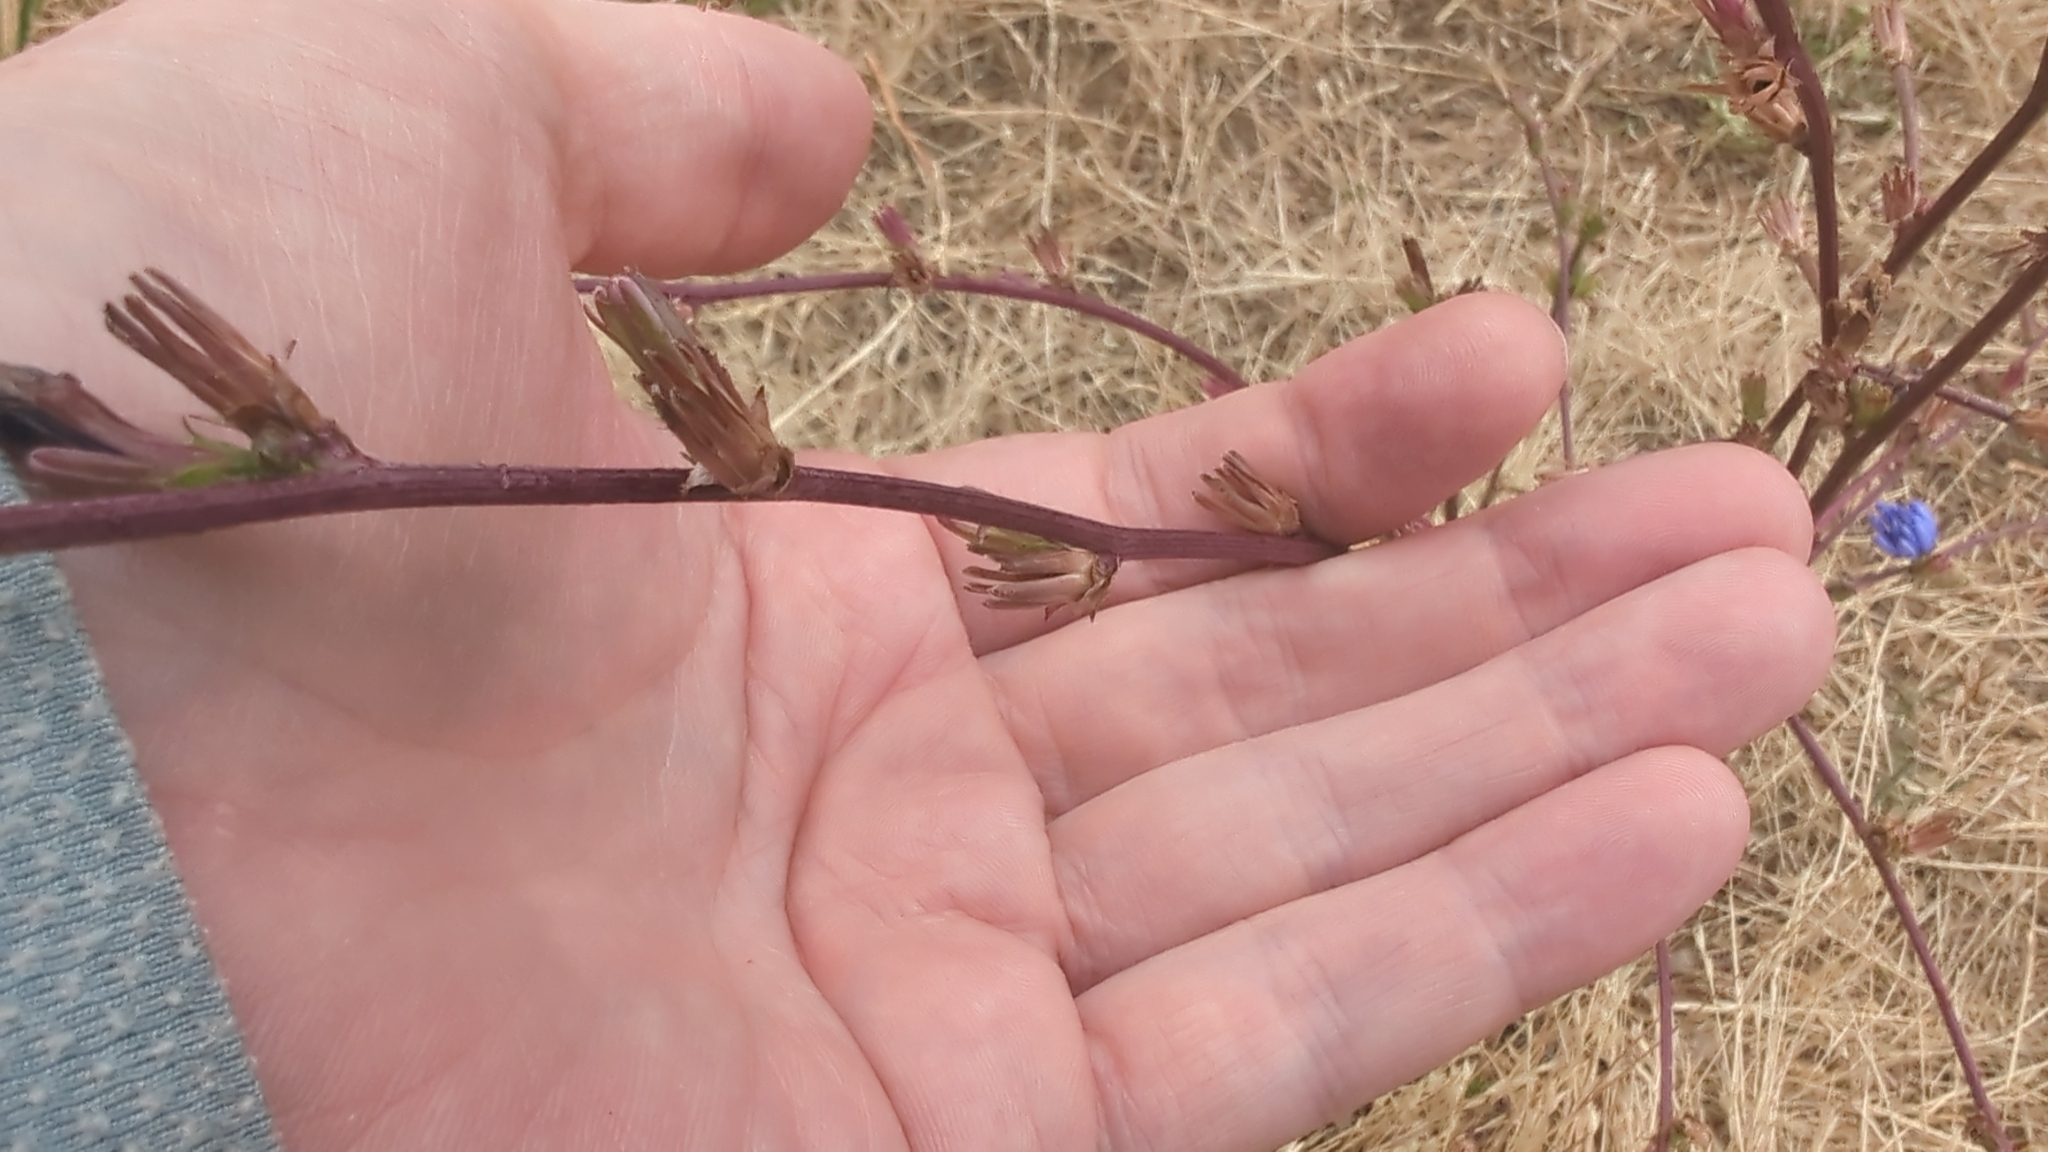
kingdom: Plantae
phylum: Tracheophyta
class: Magnoliopsida
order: Asterales
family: Asteraceae
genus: Cichorium
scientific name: Cichorium intybus
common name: Chicory
